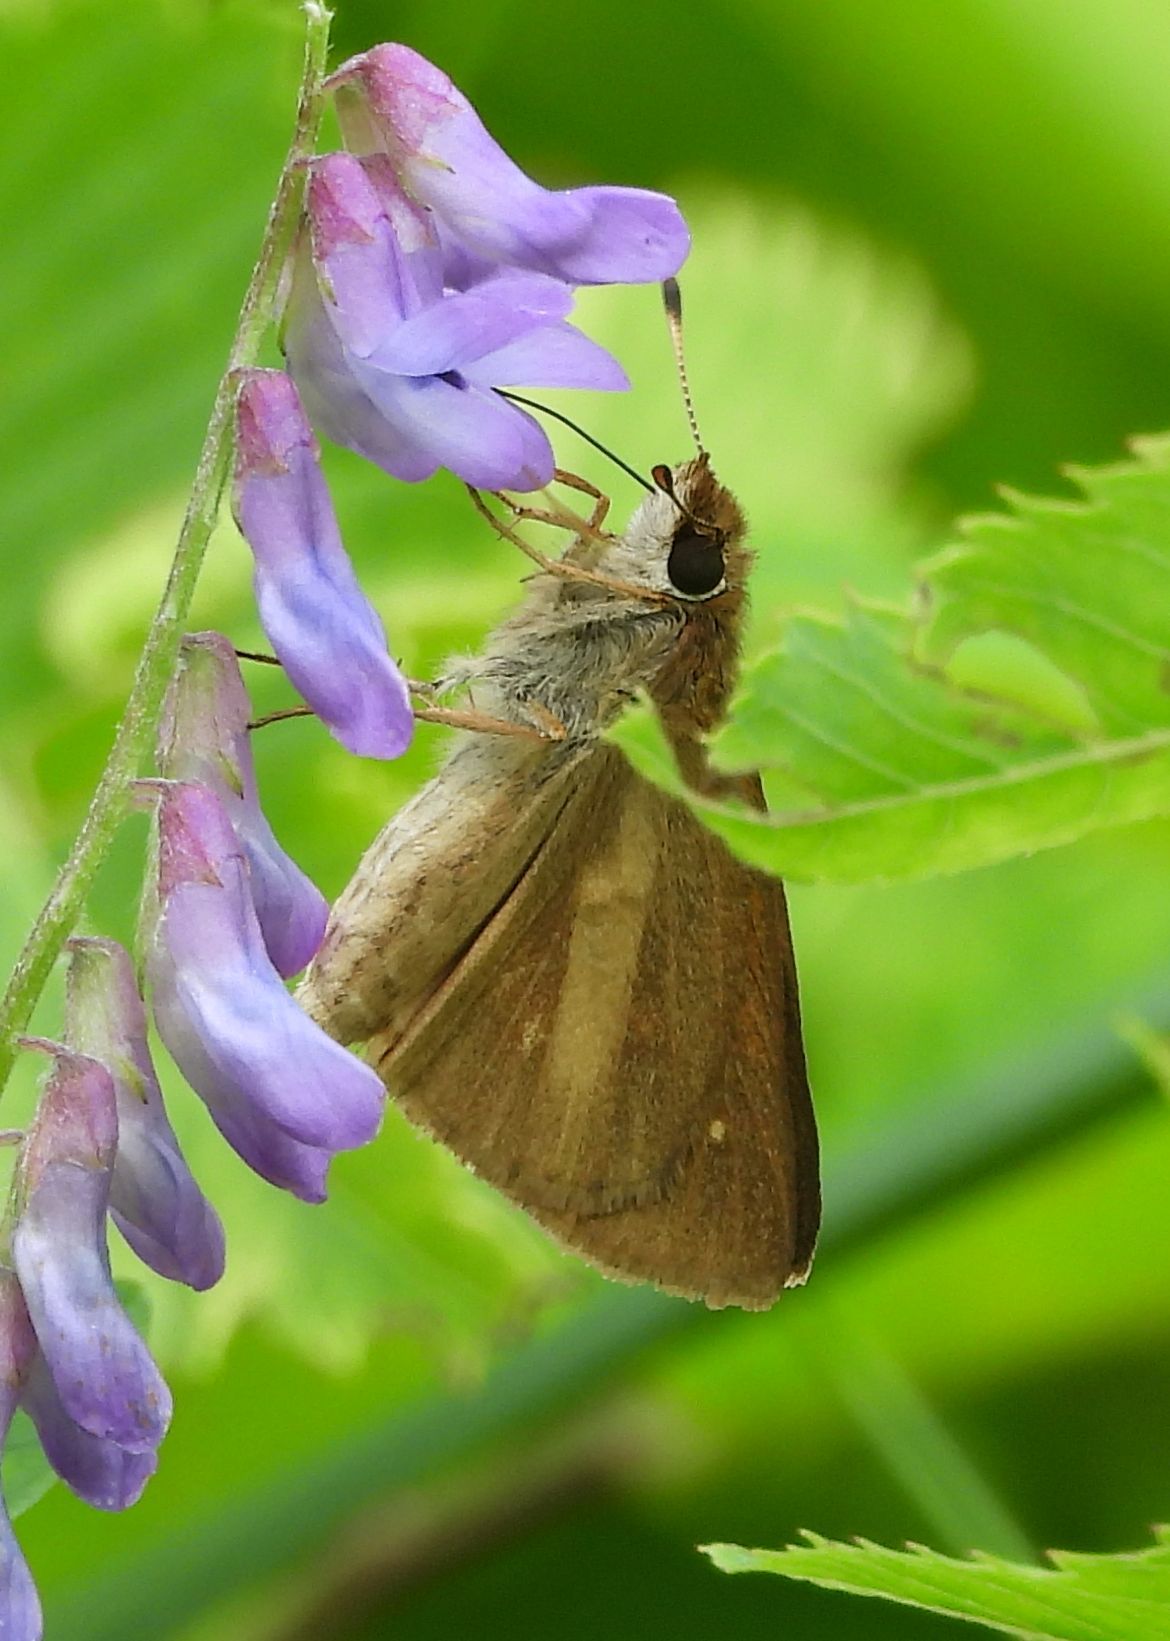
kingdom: Animalia
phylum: Arthropoda
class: Insecta
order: Lepidoptera
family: Hesperiidae
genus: Poanes
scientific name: Poanes viator
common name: Broad-winged skipper
